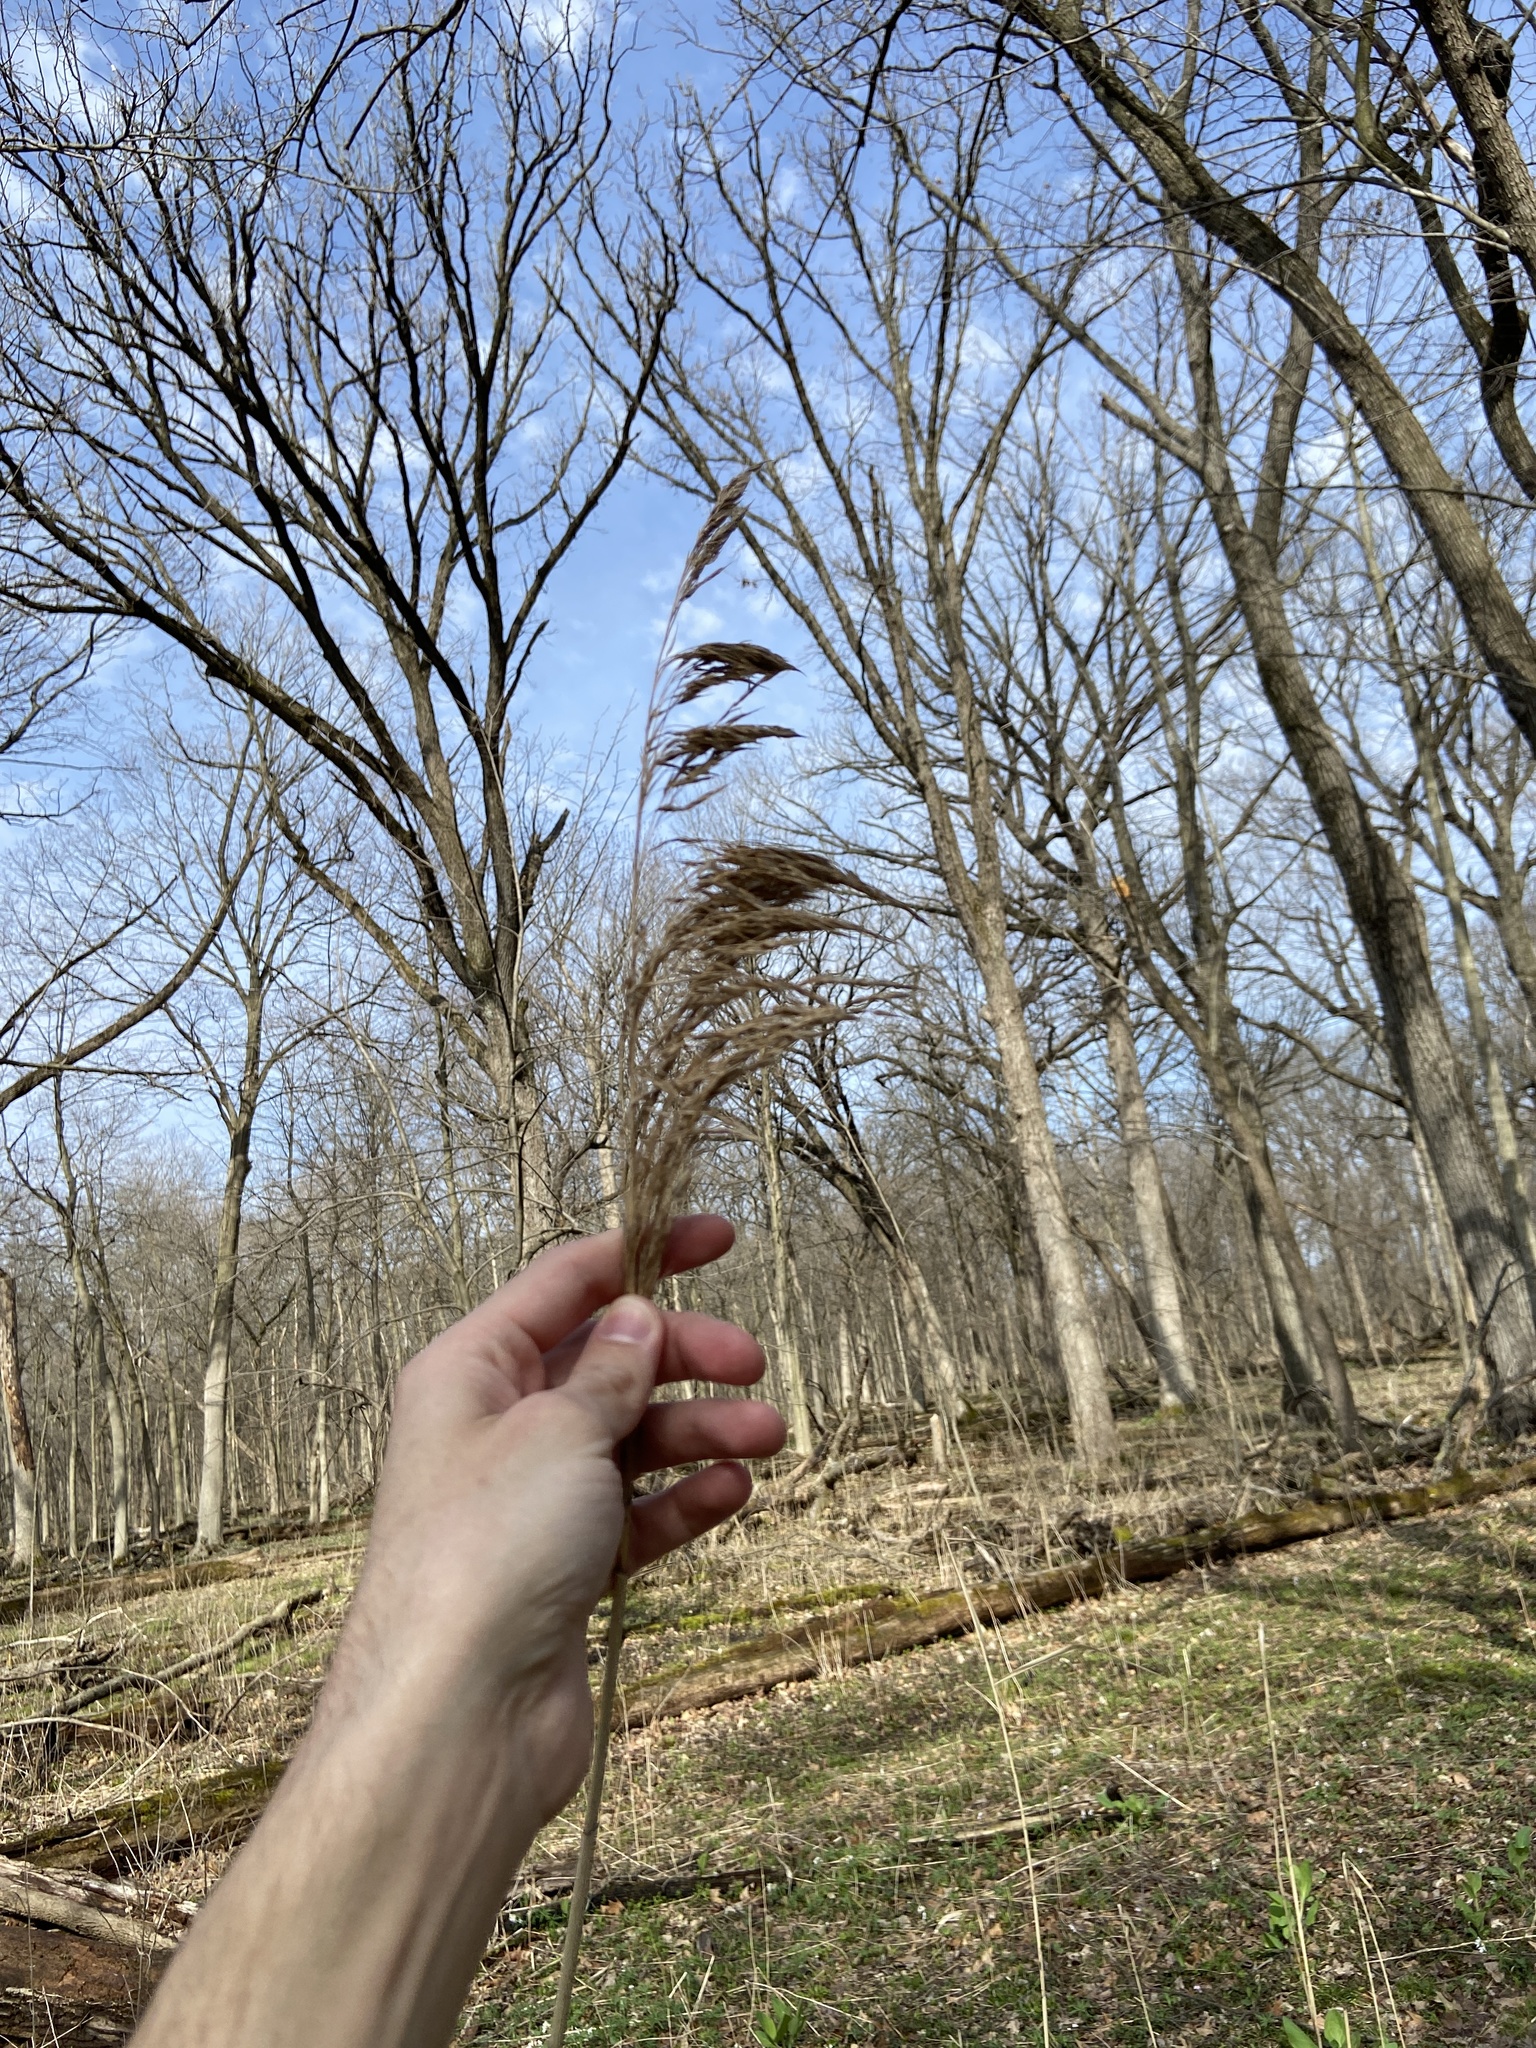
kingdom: Plantae
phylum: Tracheophyta
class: Liliopsida
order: Poales
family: Poaceae
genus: Phragmites
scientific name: Phragmites australis
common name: Common reed
